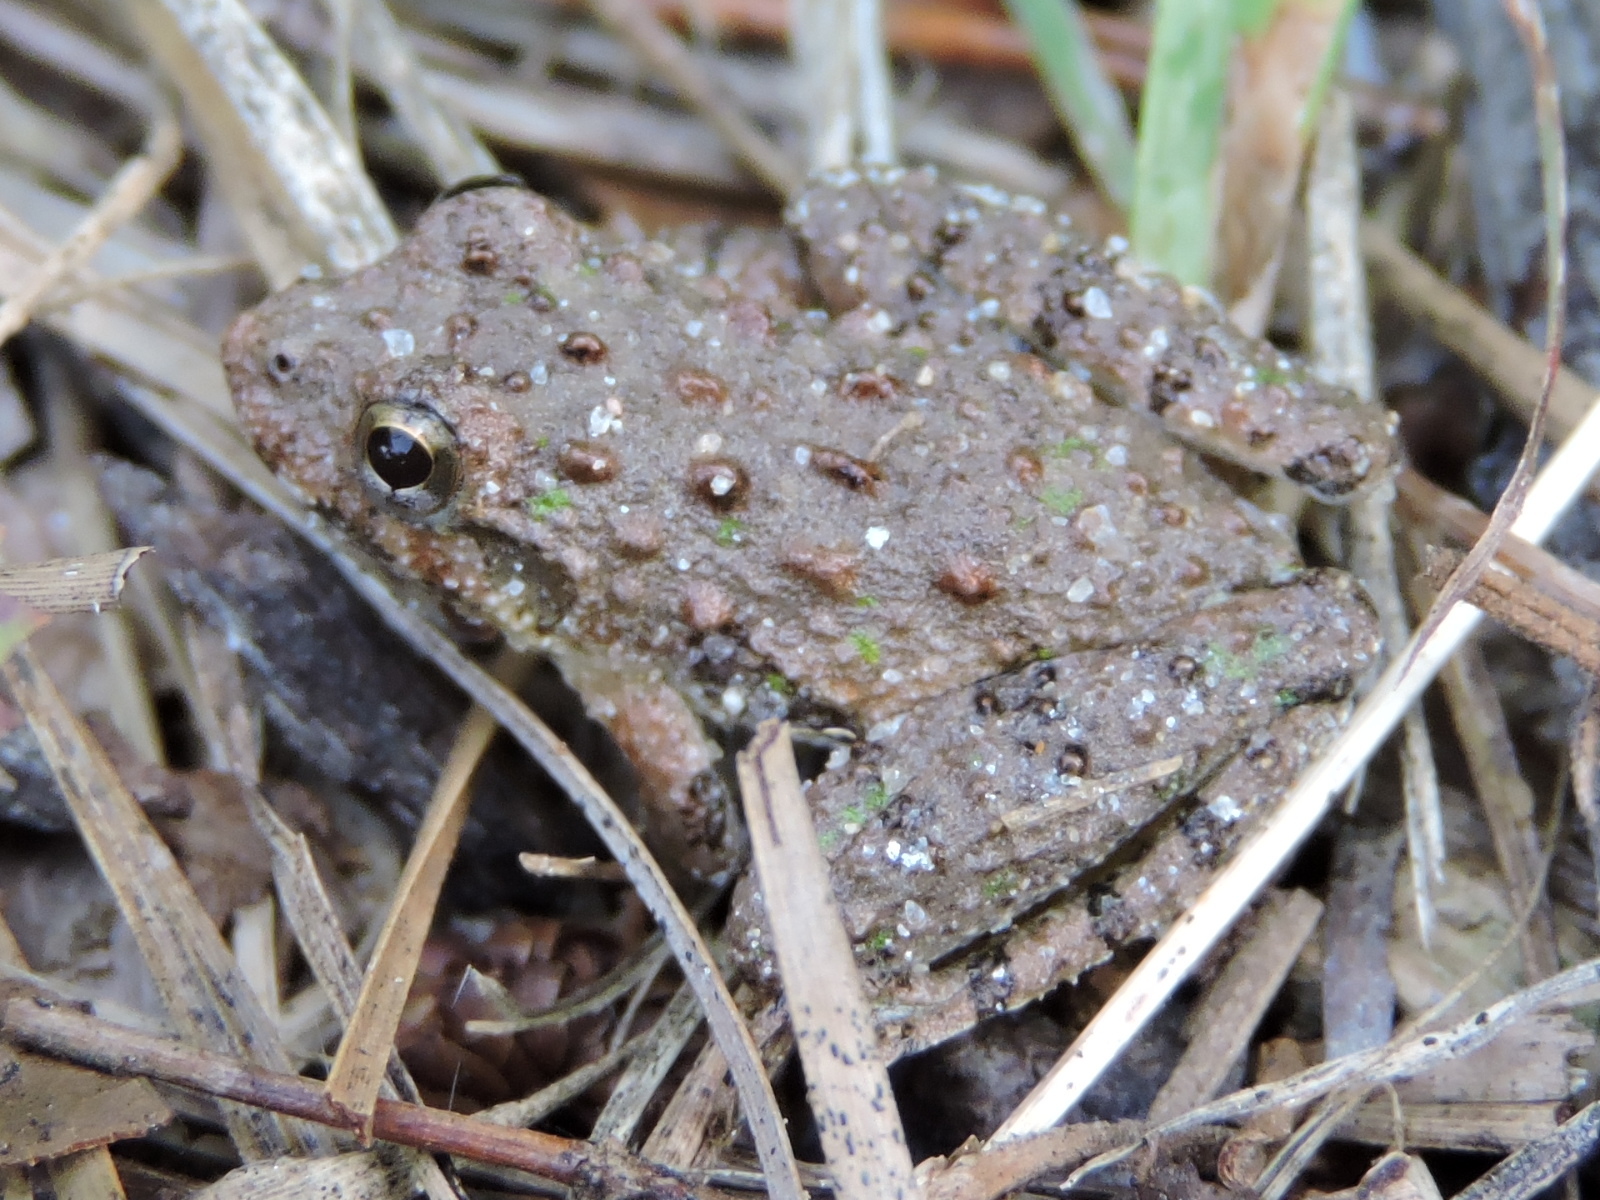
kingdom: Animalia
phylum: Chordata
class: Amphibia
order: Anura
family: Hylidae
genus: Acris
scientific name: Acris crepitans
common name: Northern cricket frog
